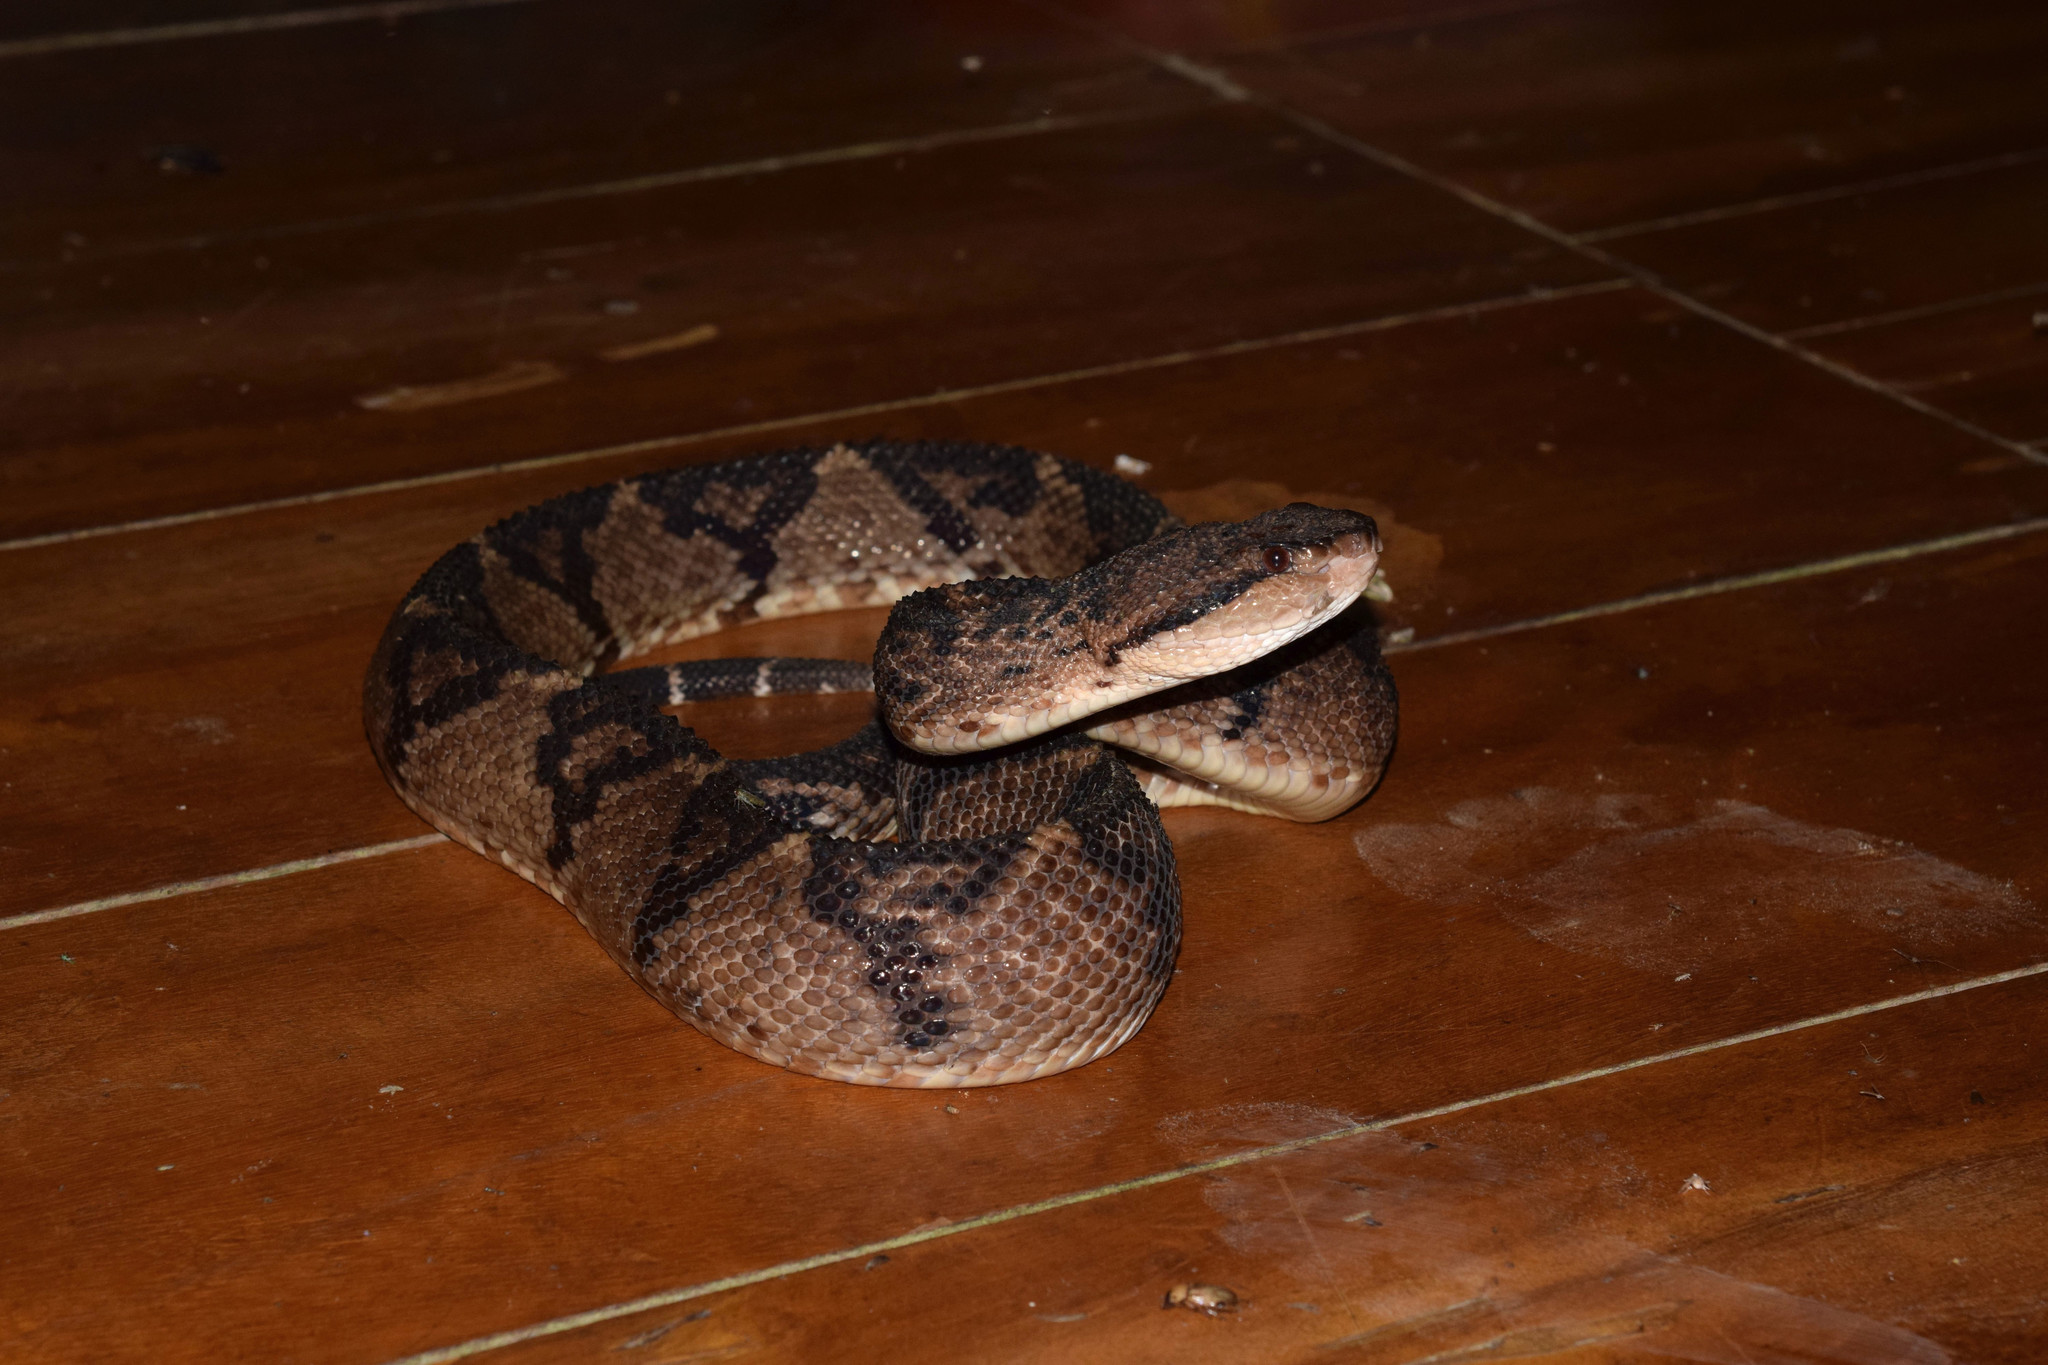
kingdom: Animalia
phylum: Chordata
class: Squamata
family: Viperidae
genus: Lachesis
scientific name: Lachesis acrochorda
